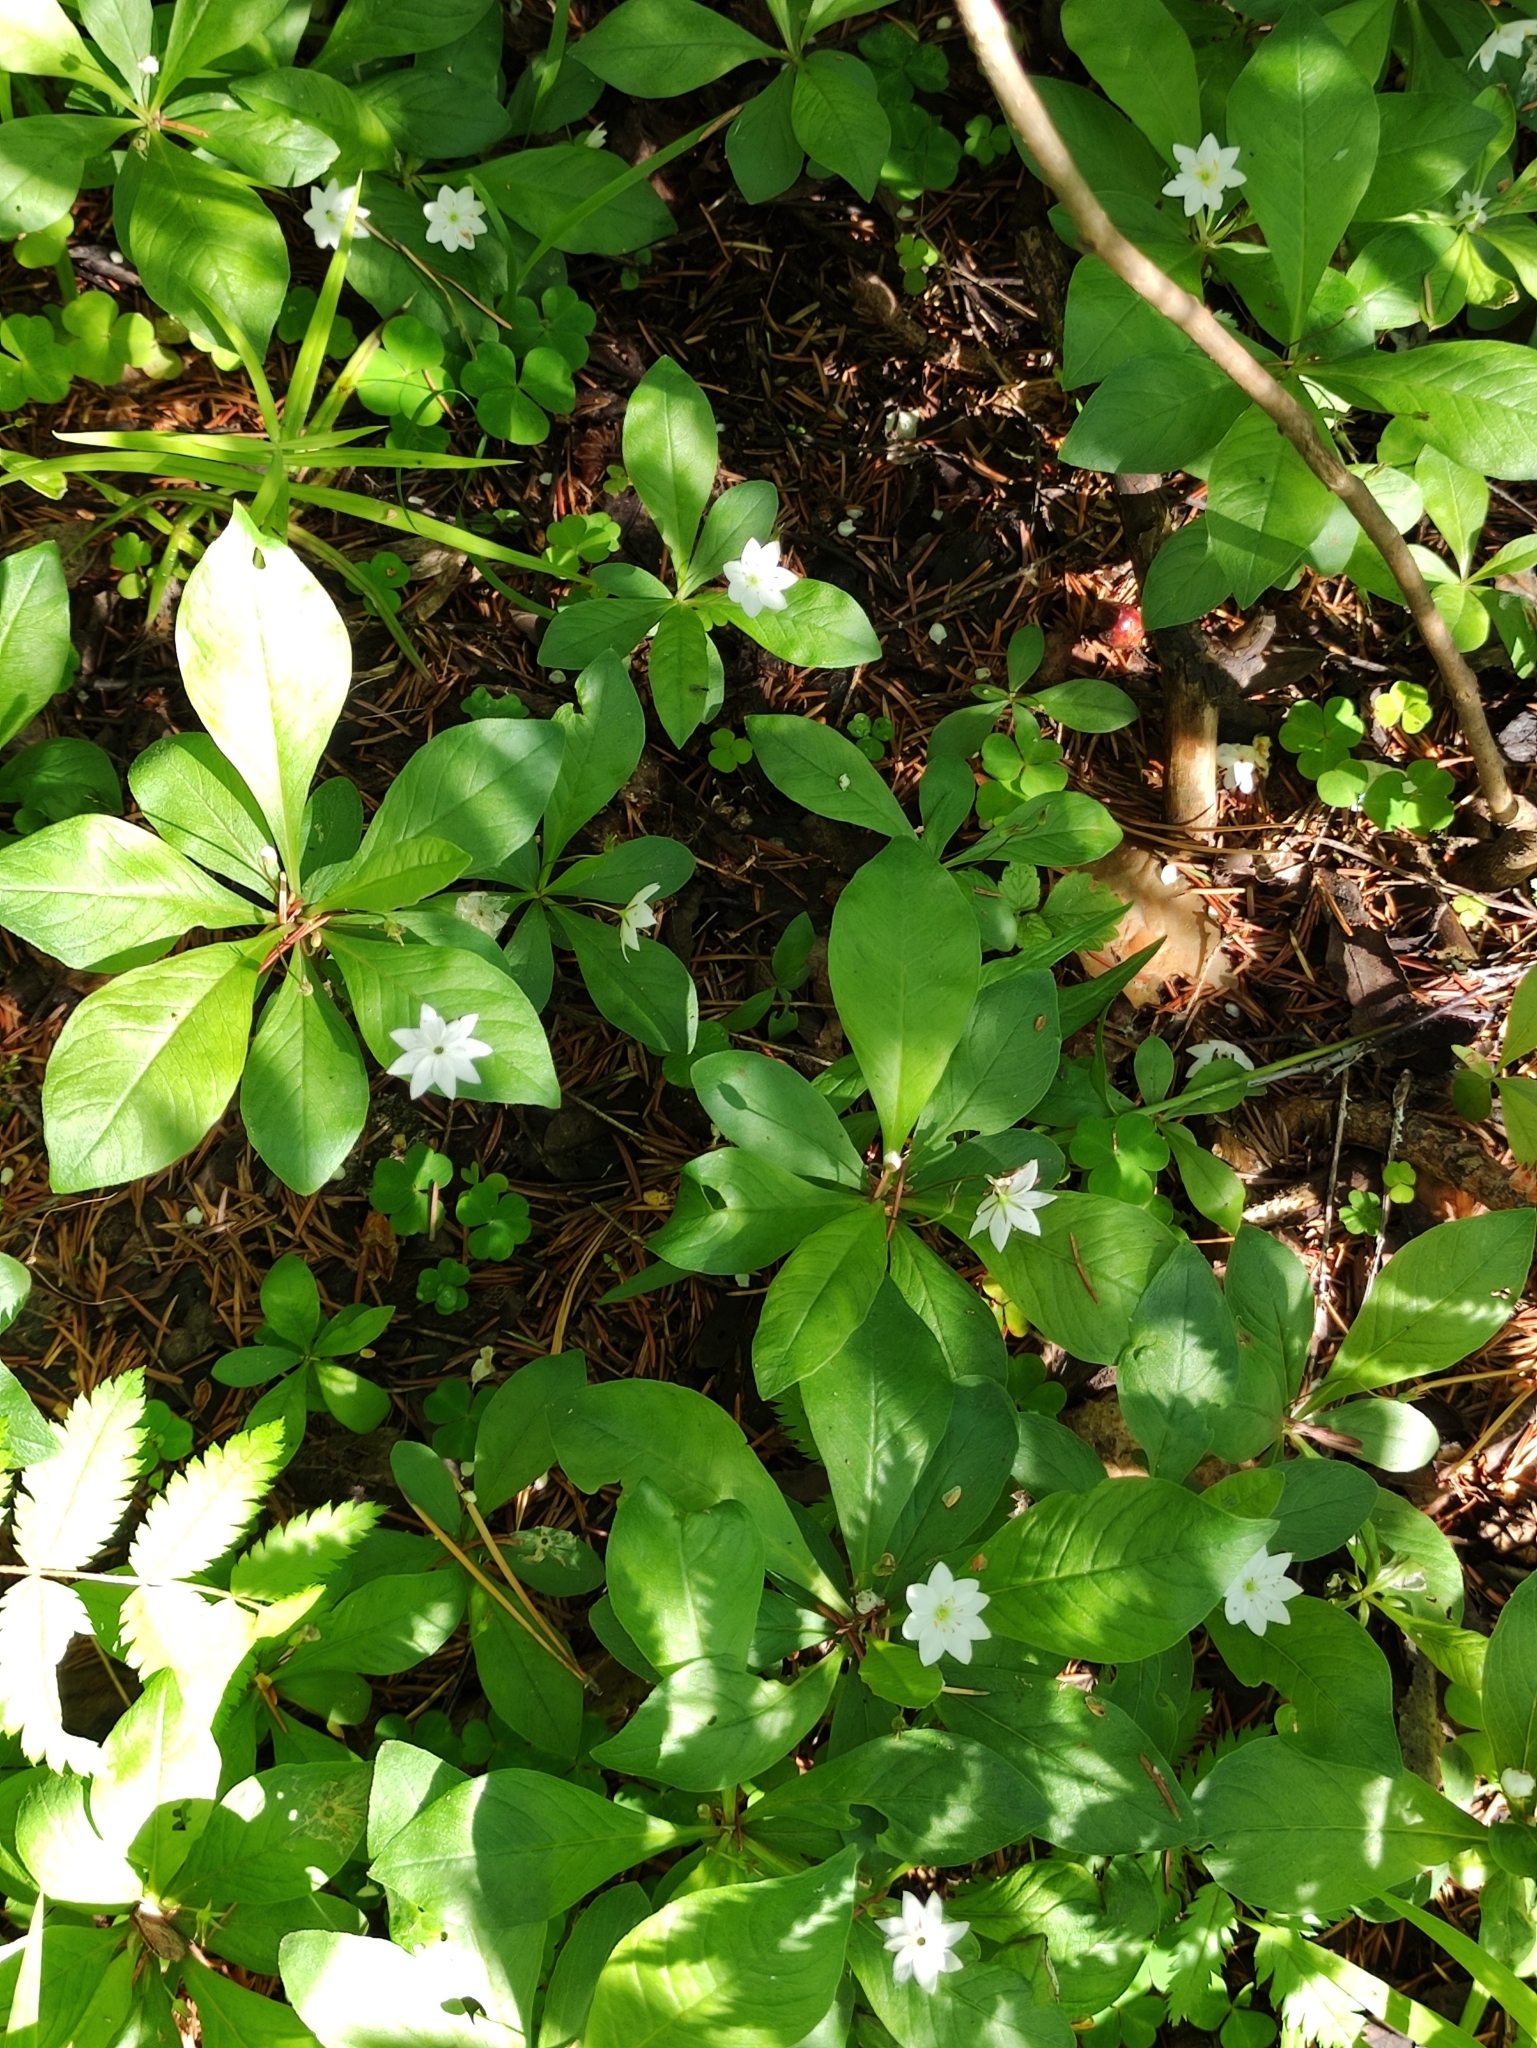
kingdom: Plantae
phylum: Tracheophyta
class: Magnoliopsida
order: Ericales
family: Primulaceae
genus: Lysimachia
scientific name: Lysimachia europaea
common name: Arctic starflower
